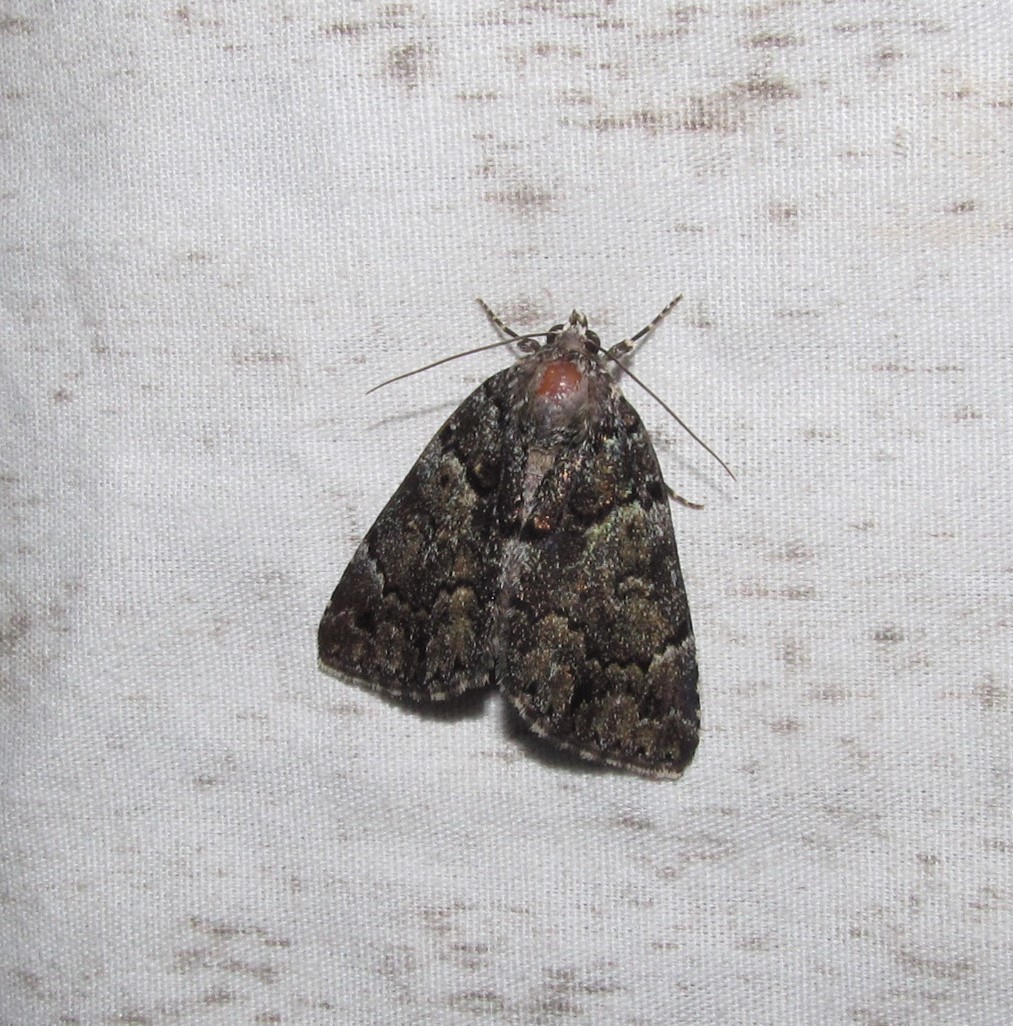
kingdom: Animalia
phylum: Arthropoda
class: Insecta
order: Lepidoptera
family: Erebidae
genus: Allotria
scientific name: Allotria elonympha
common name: False underwing
